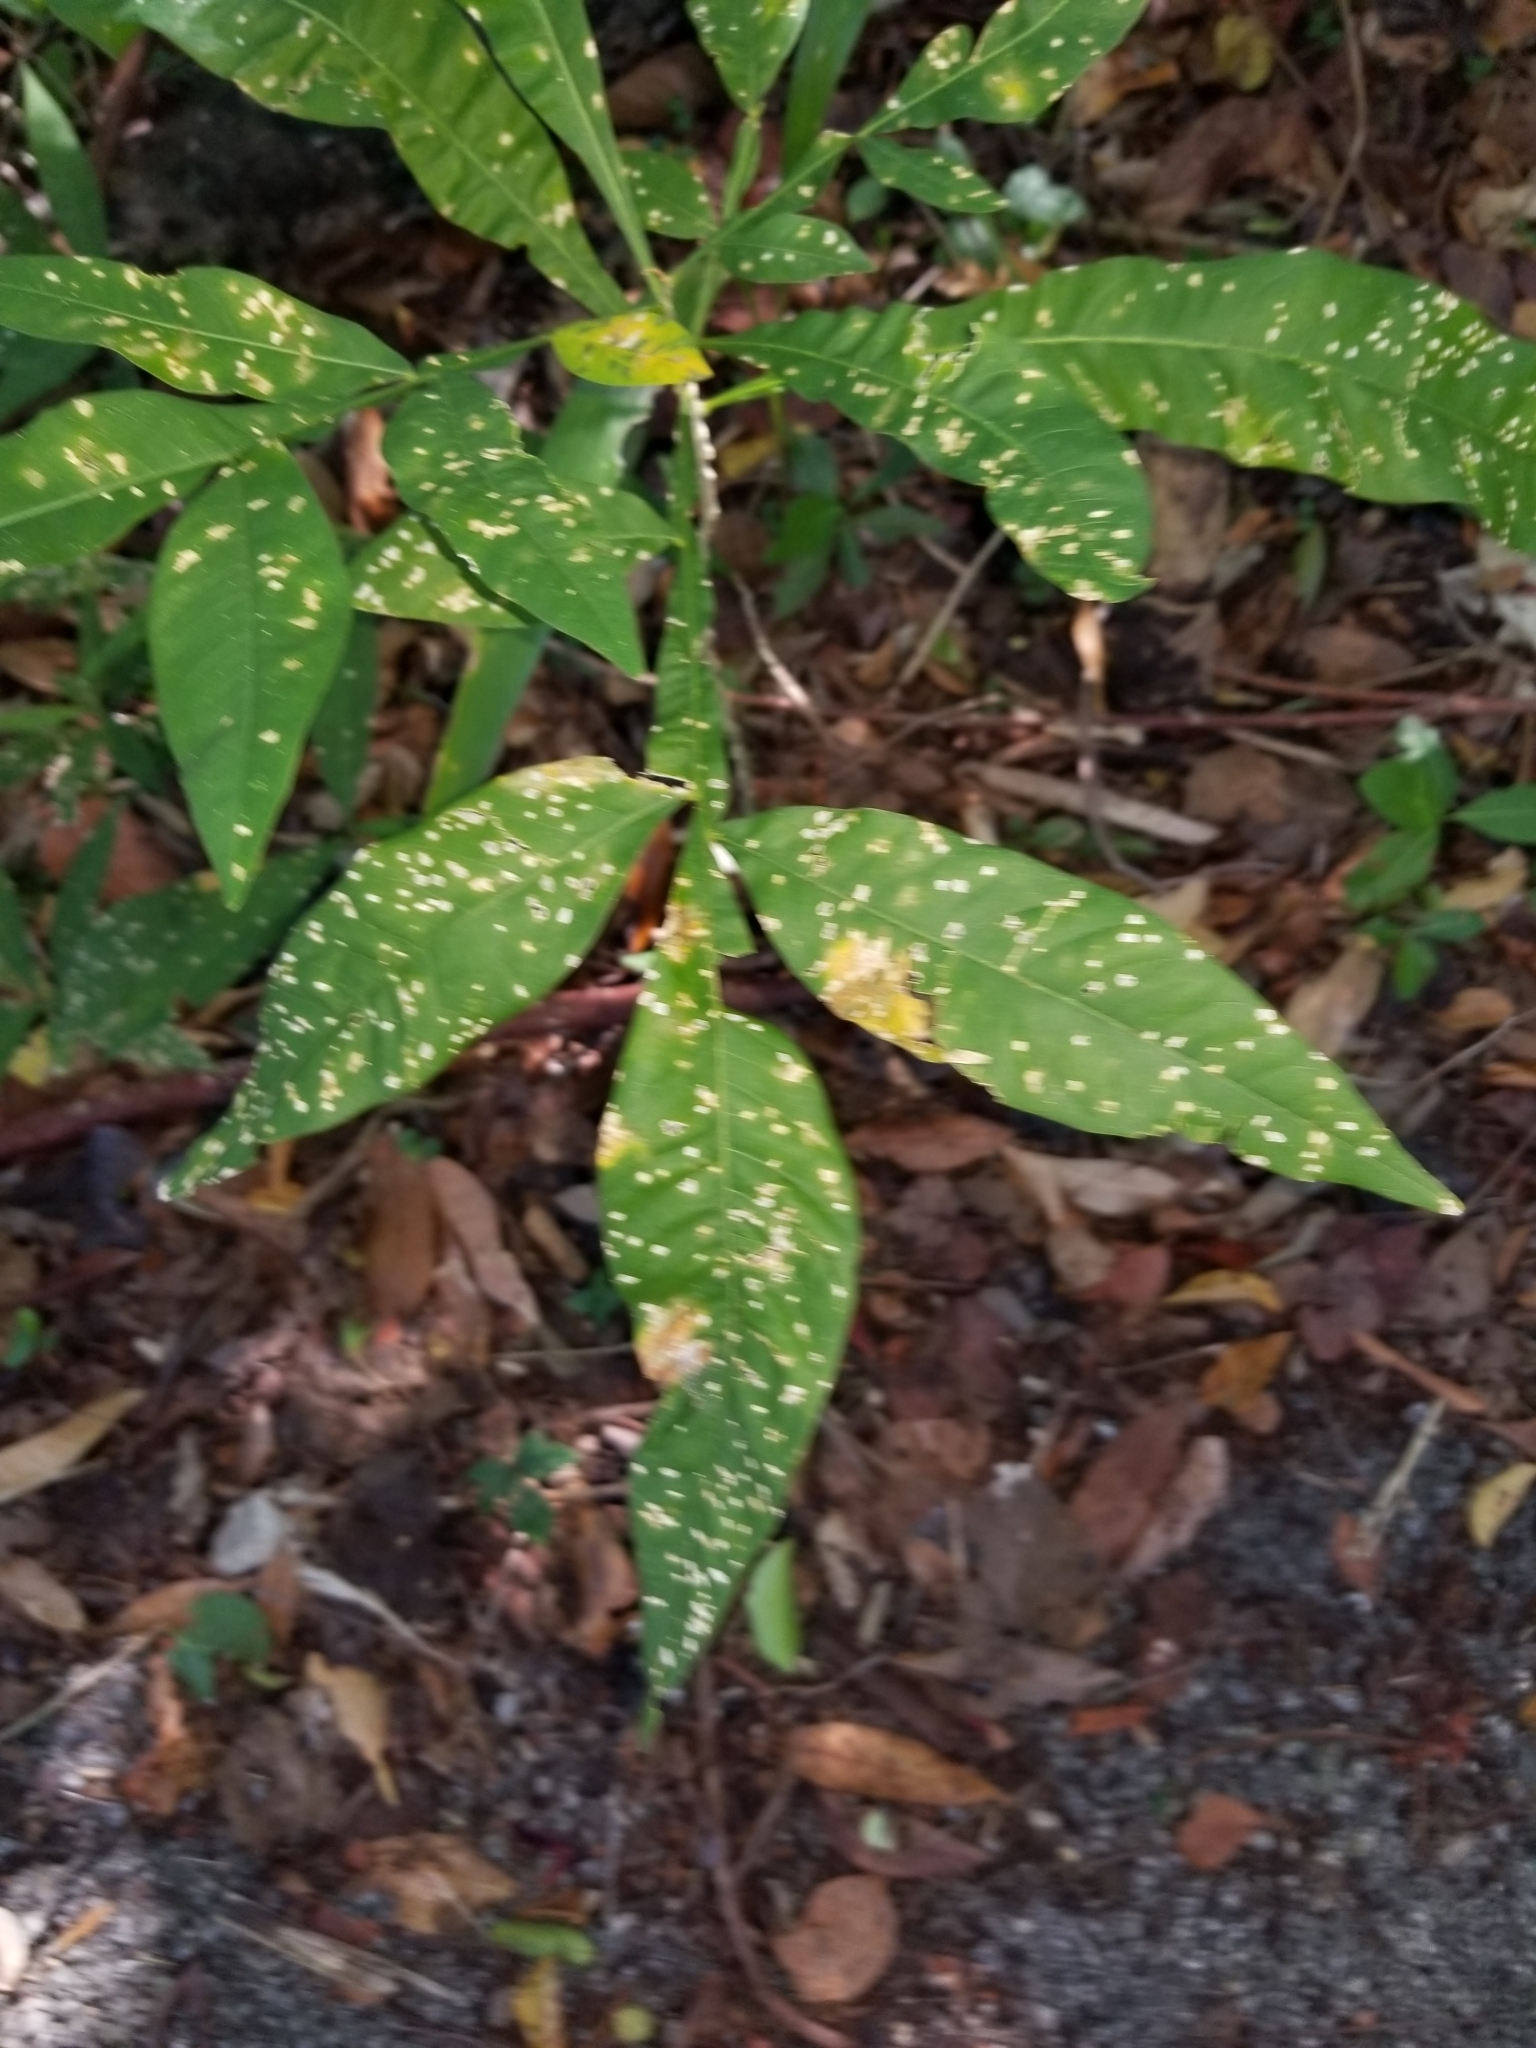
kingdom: Plantae
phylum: Tracheophyta
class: Magnoliopsida
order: Sapindales
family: Sapindaceae
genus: Sapindus
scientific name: Sapindus saponaria
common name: Wingleaf soapberry
